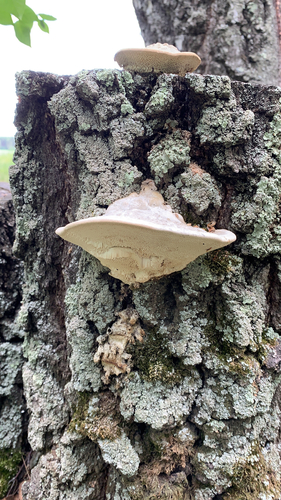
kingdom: Fungi
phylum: Basidiomycota
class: Agaricomycetes
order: Polyporales
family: Polyporaceae
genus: Trametes
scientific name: Trametes gibbosa
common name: Lumpy bracket
